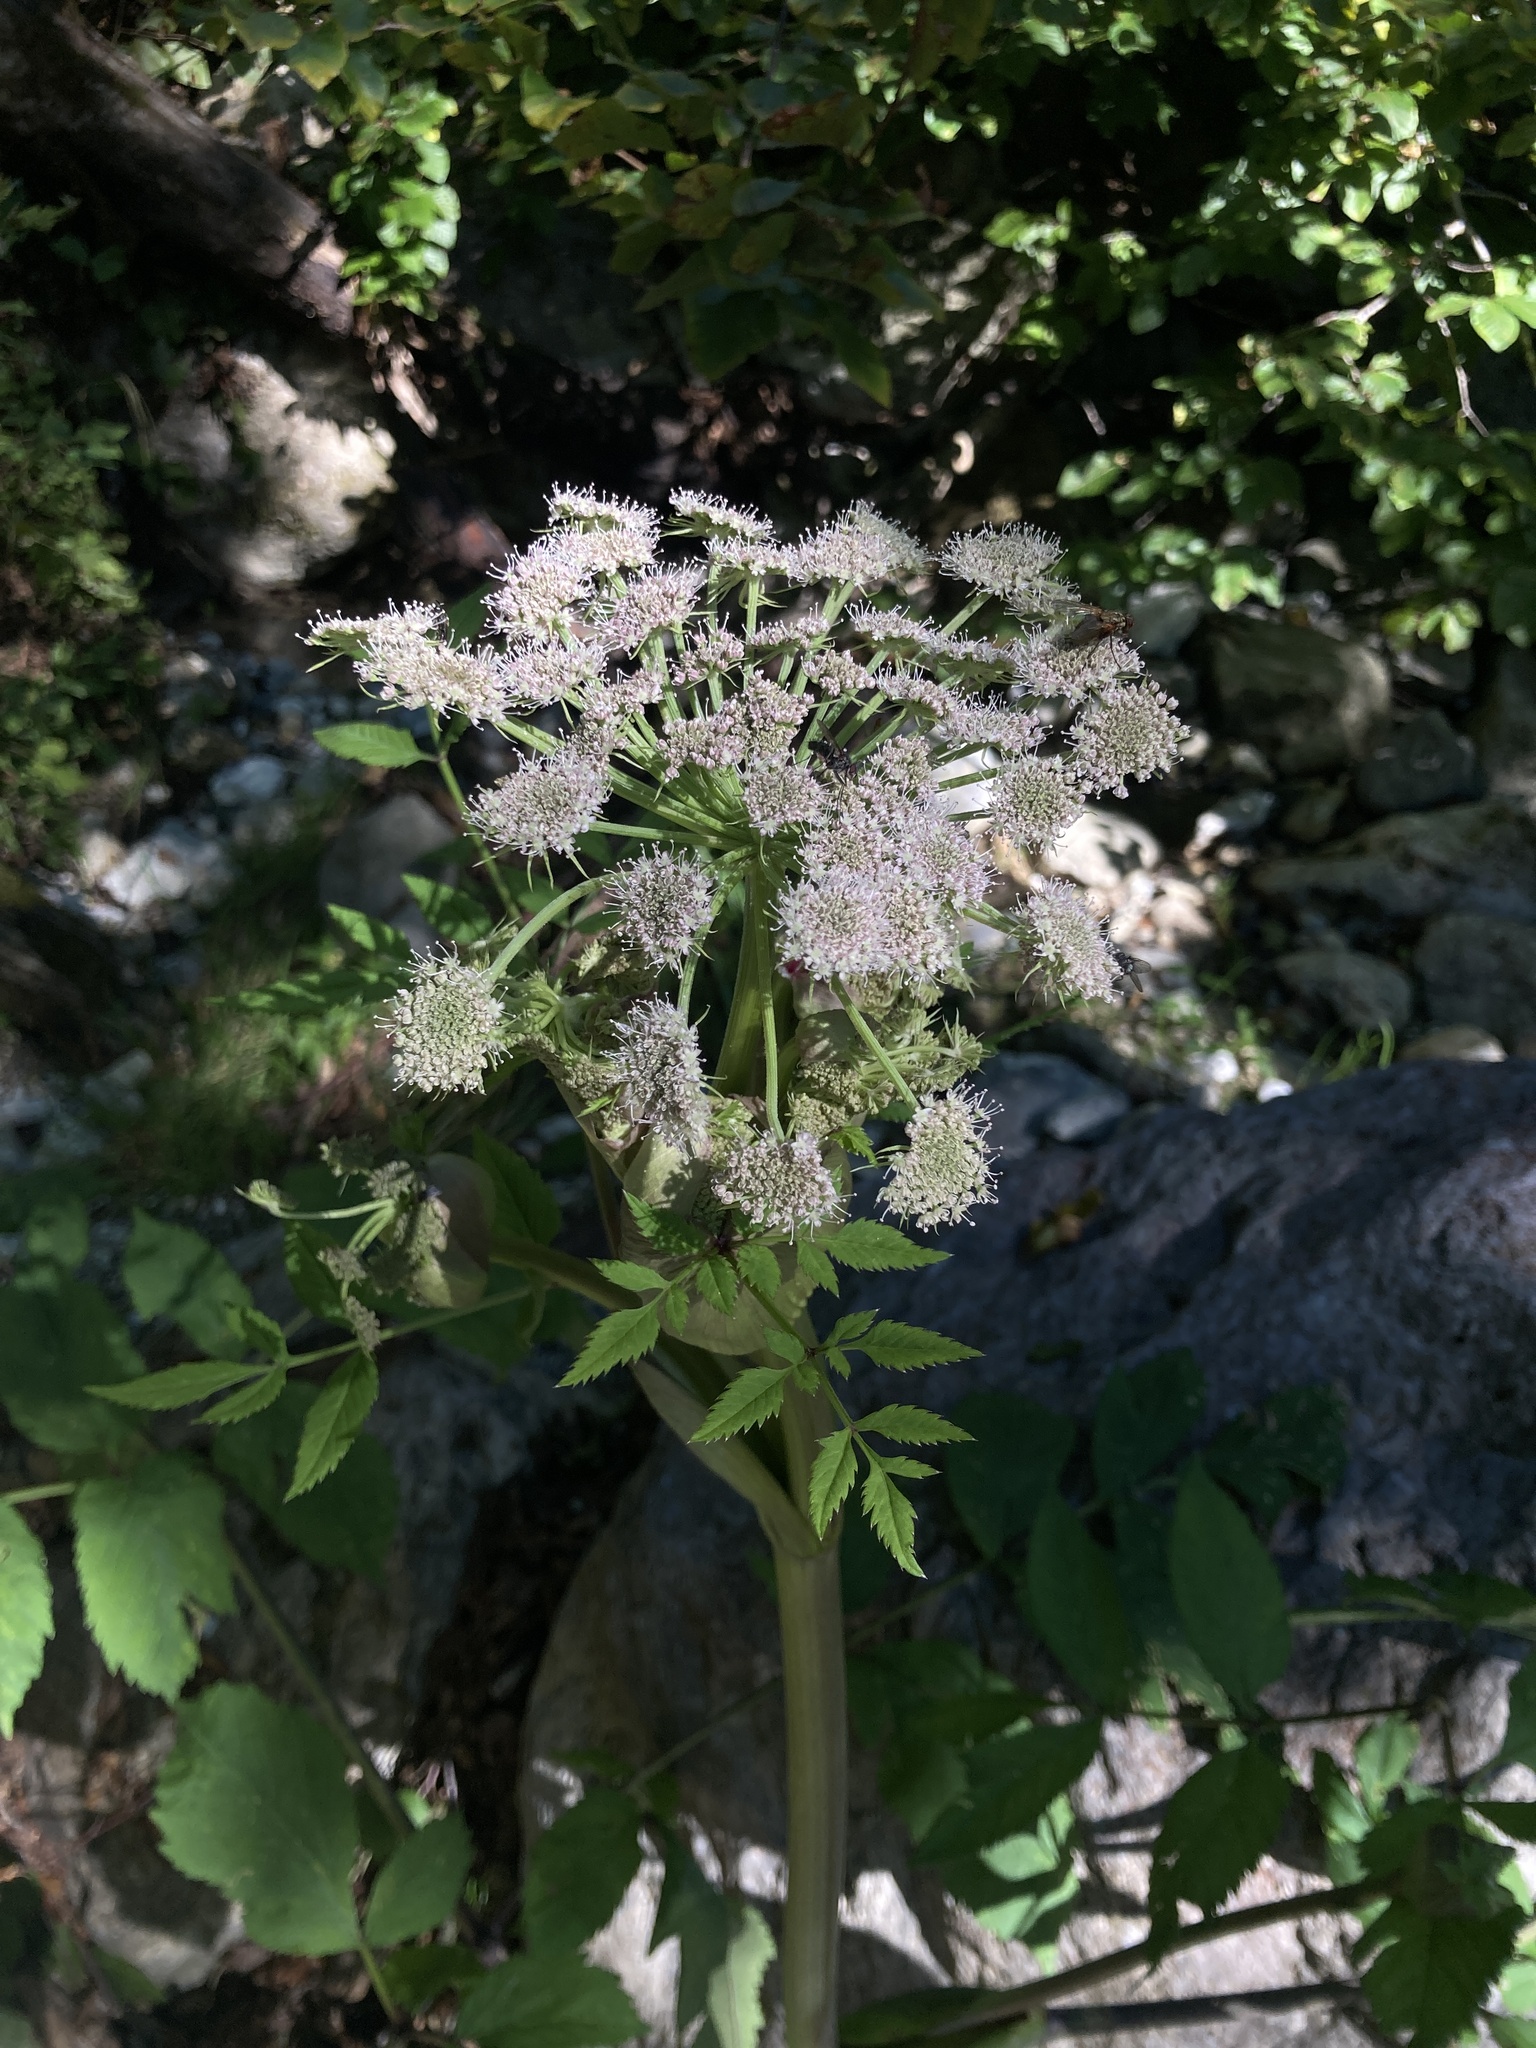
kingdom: Plantae
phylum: Tracheophyta
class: Magnoliopsida
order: Apiales
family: Apiaceae
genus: Angelica
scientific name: Angelica sylvestris
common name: Wild angelica
